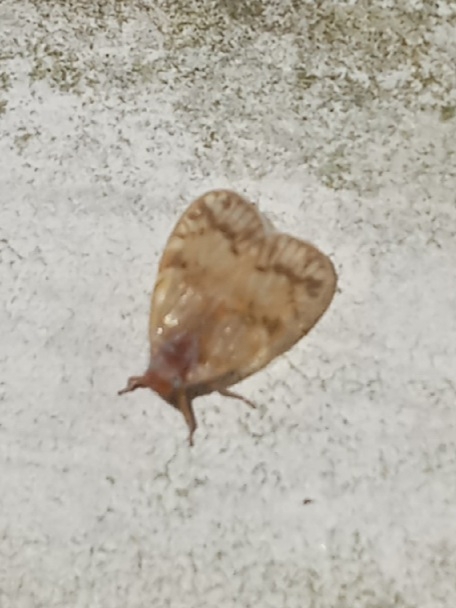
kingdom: Animalia
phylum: Arthropoda
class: Insecta
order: Hemiptera
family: Cixiidae
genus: Bothriocera
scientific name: Bothriocera drakei
